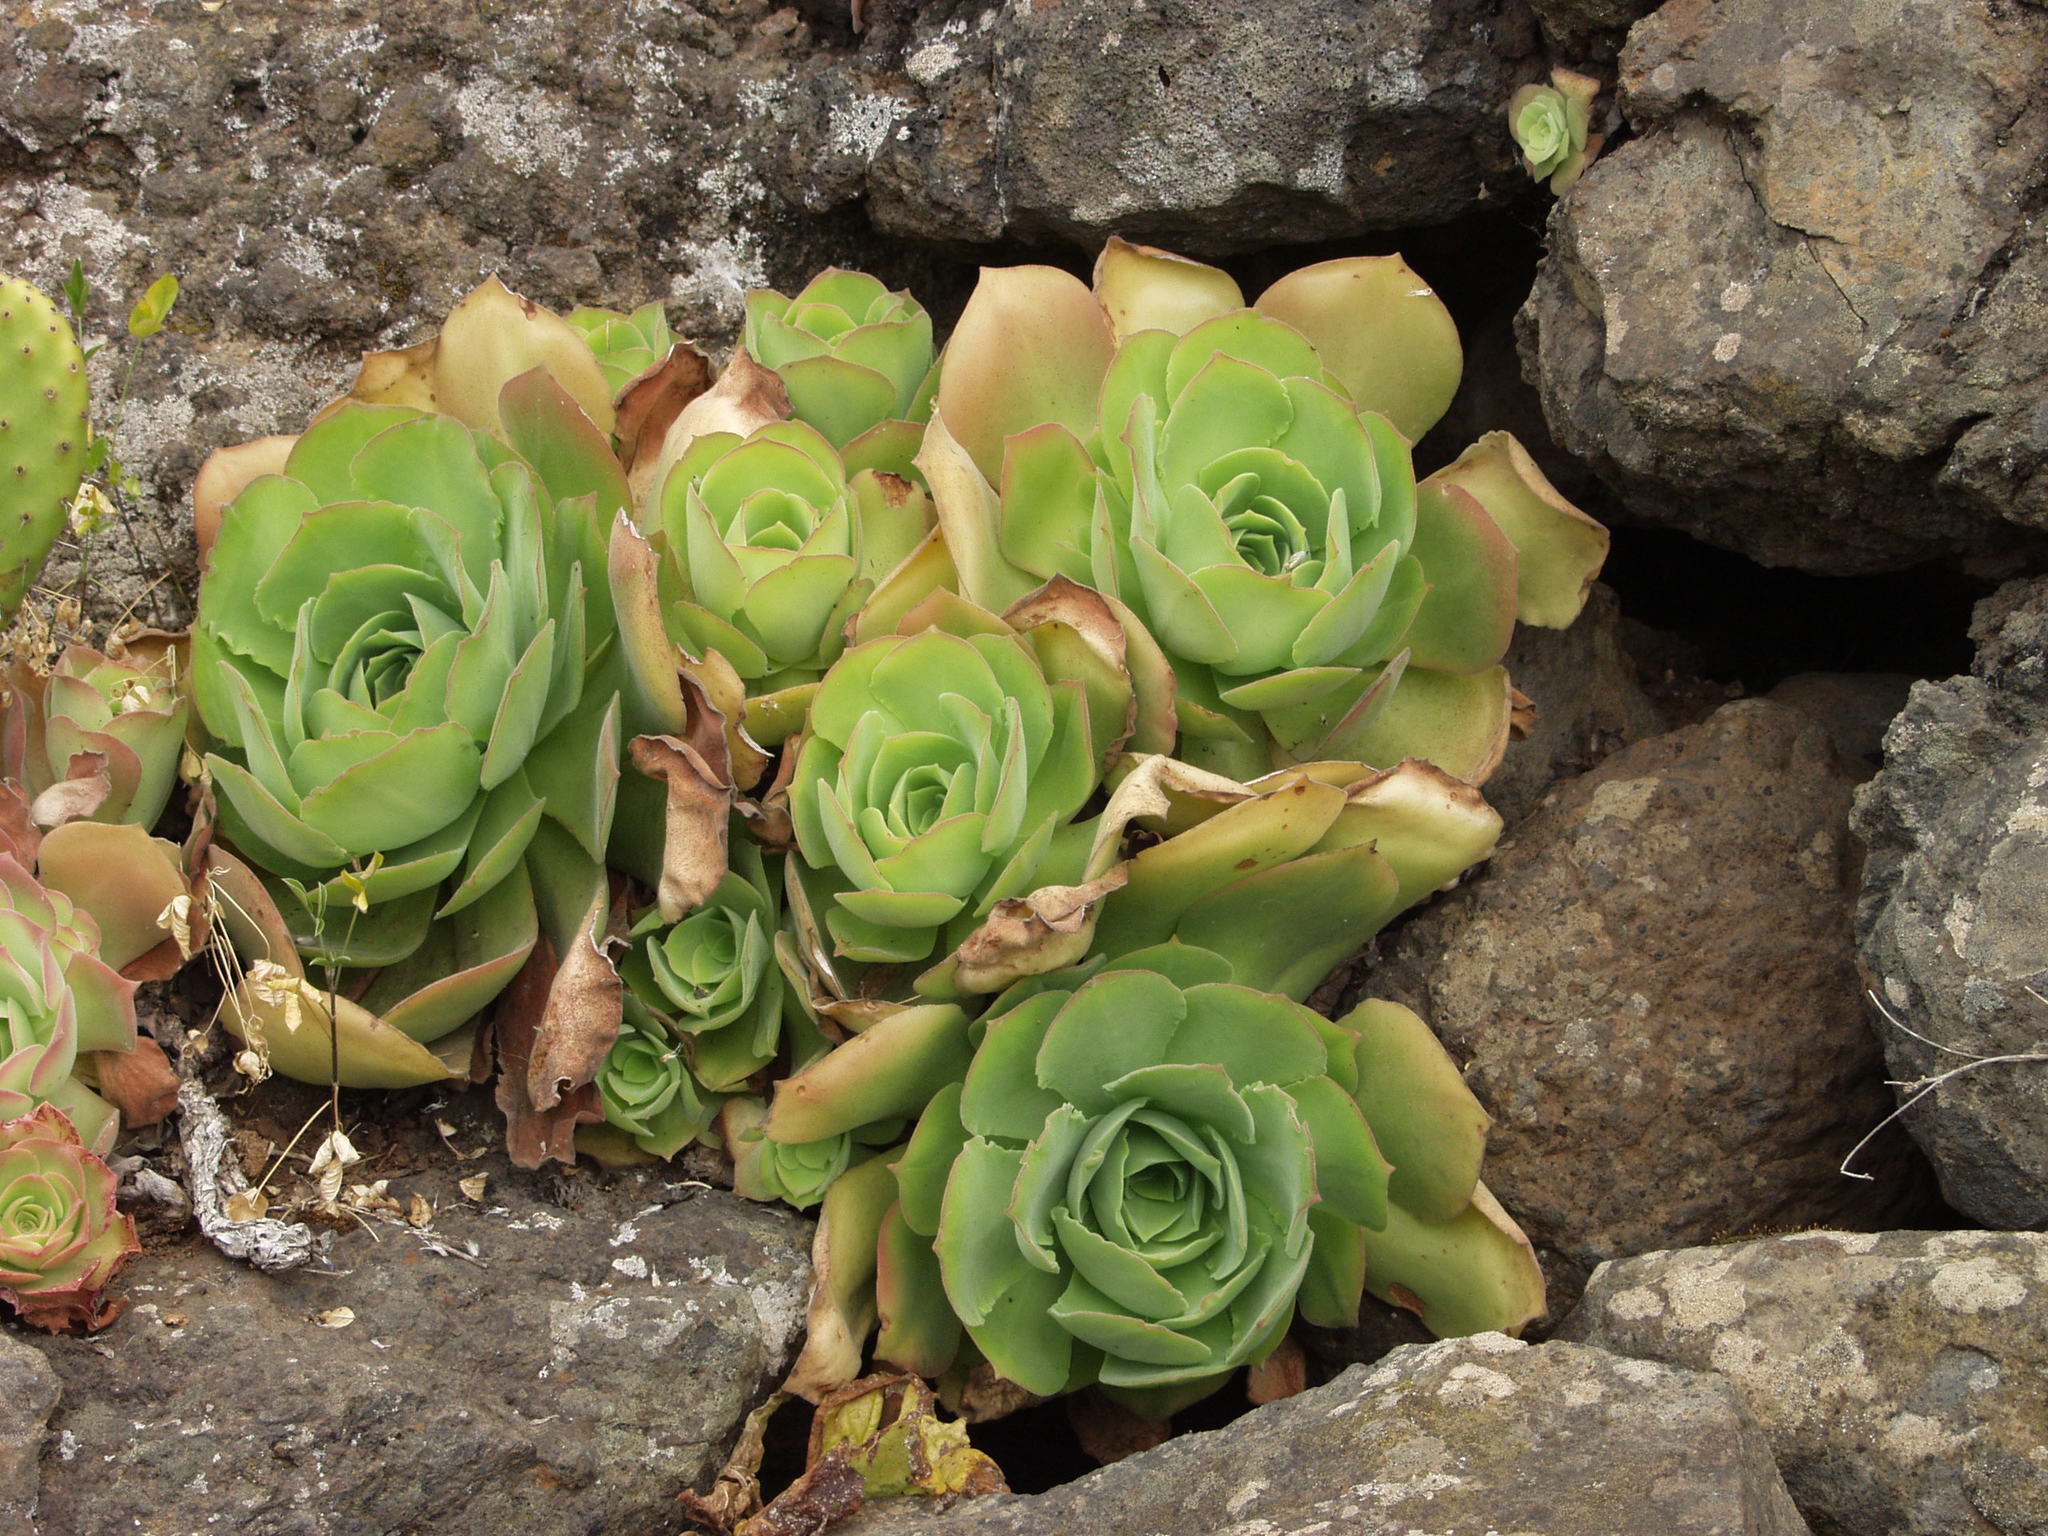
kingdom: Plantae
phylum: Tracheophyta
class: Magnoliopsida
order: Saxifragales
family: Crassulaceae
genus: Aeonium
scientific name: Aeonium canariense
